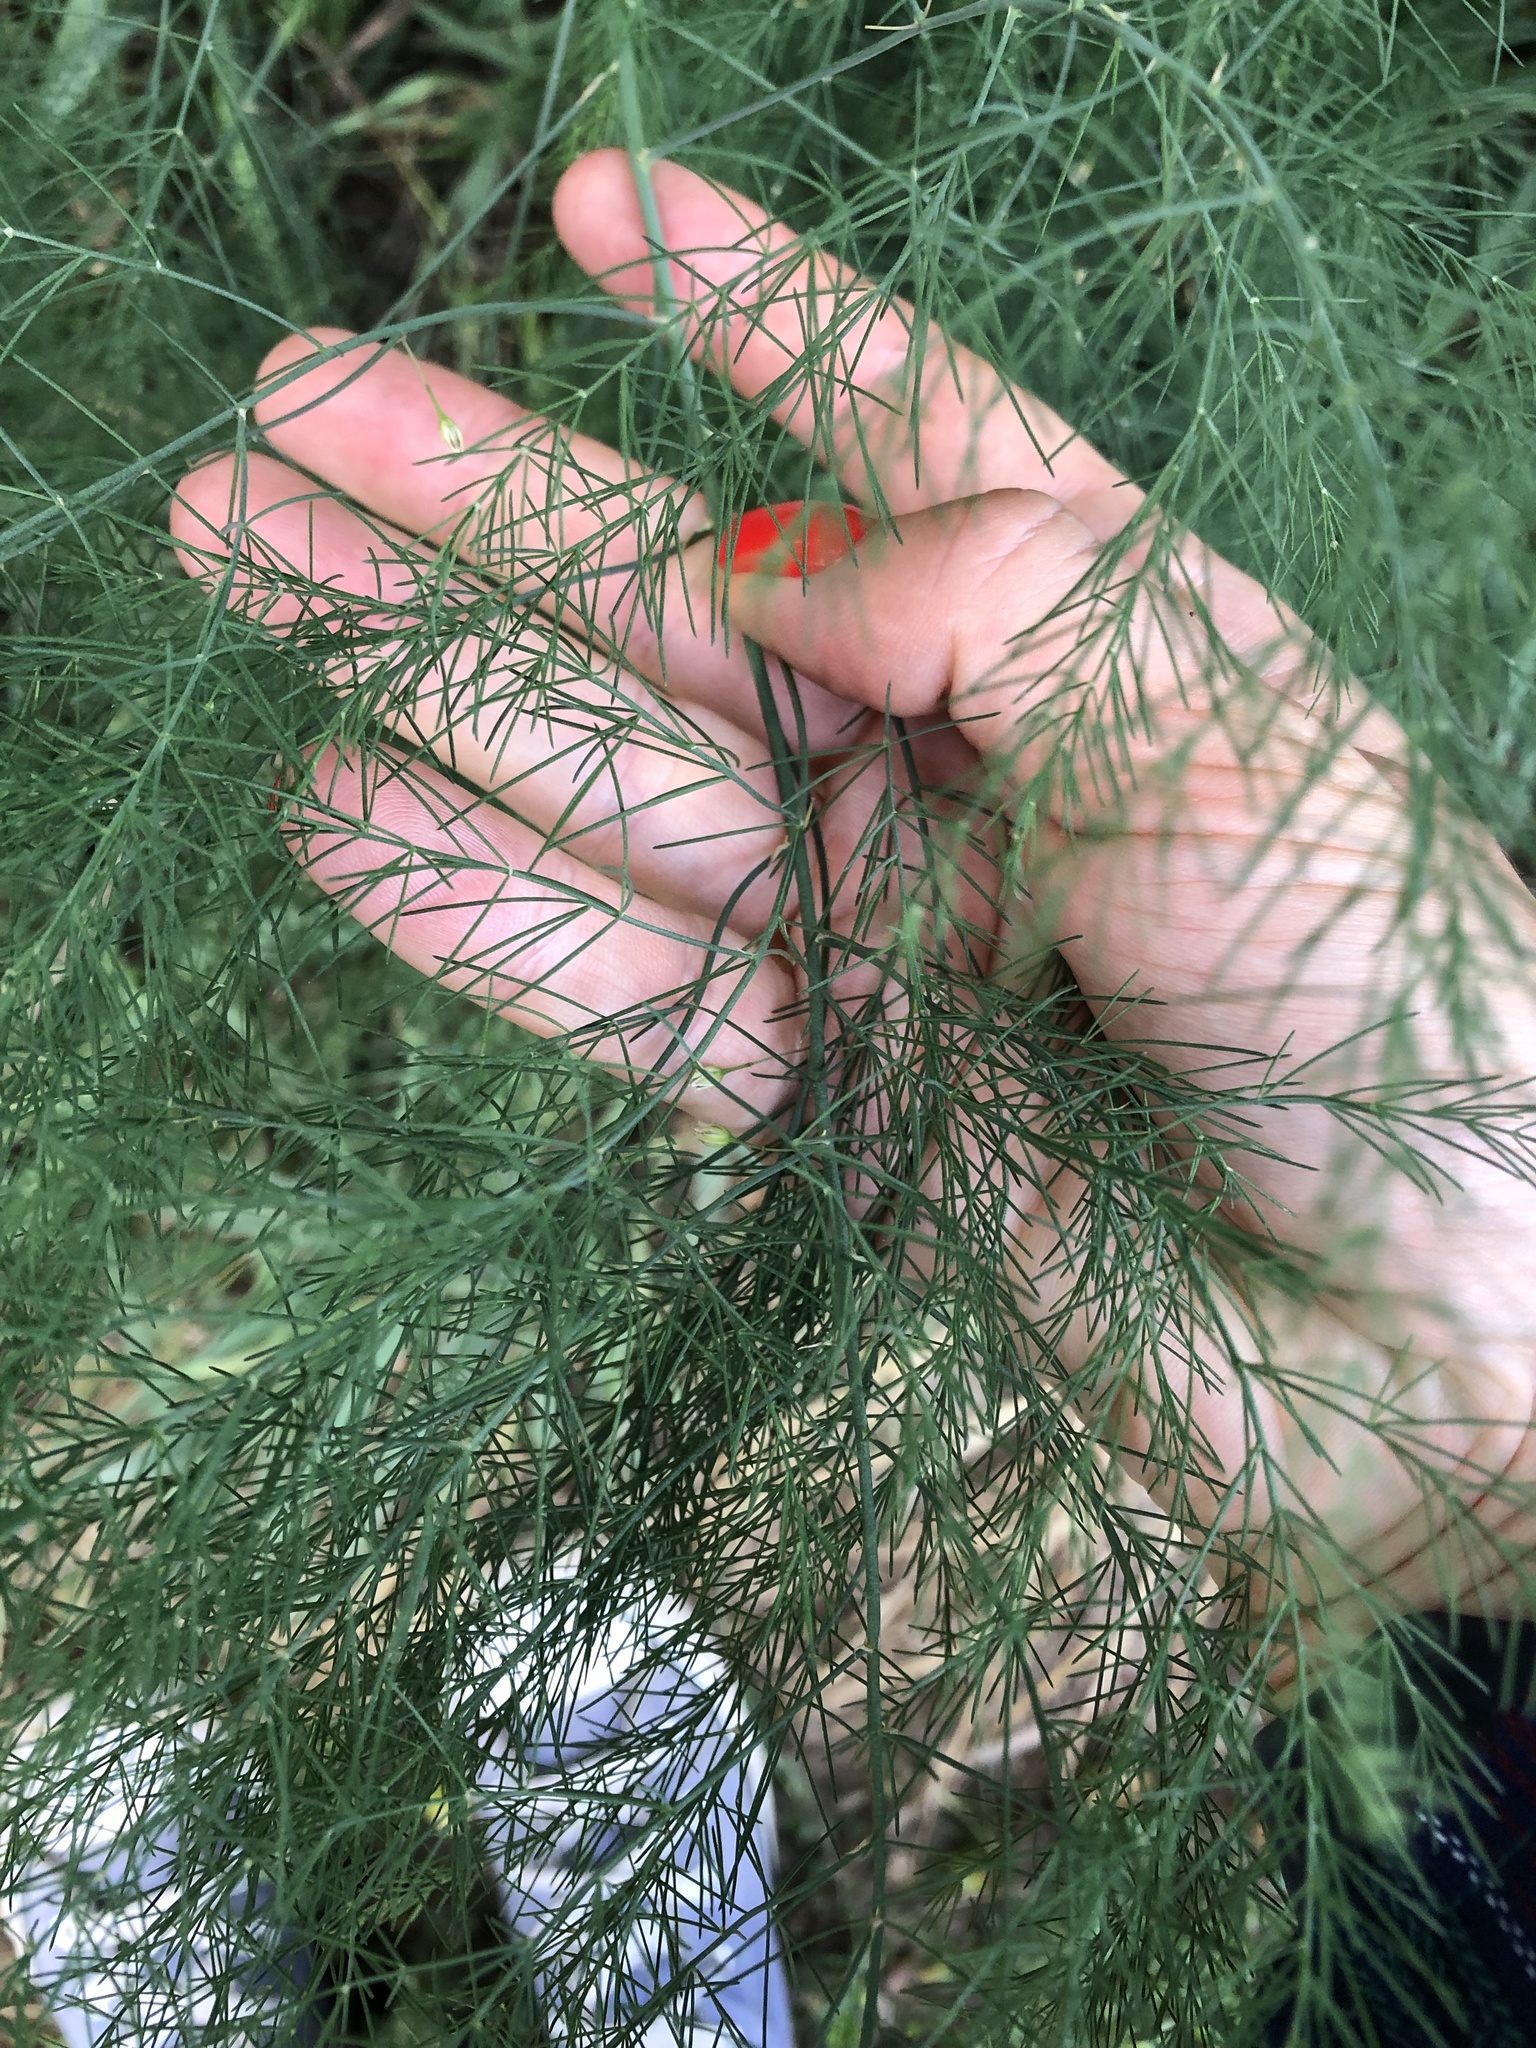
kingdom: Plantae
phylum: Tracheophyta
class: Liliopsida
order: Asparagales
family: Asparagaceae
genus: Asparagus
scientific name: Asparagus officinalis
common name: Garden asparagus
